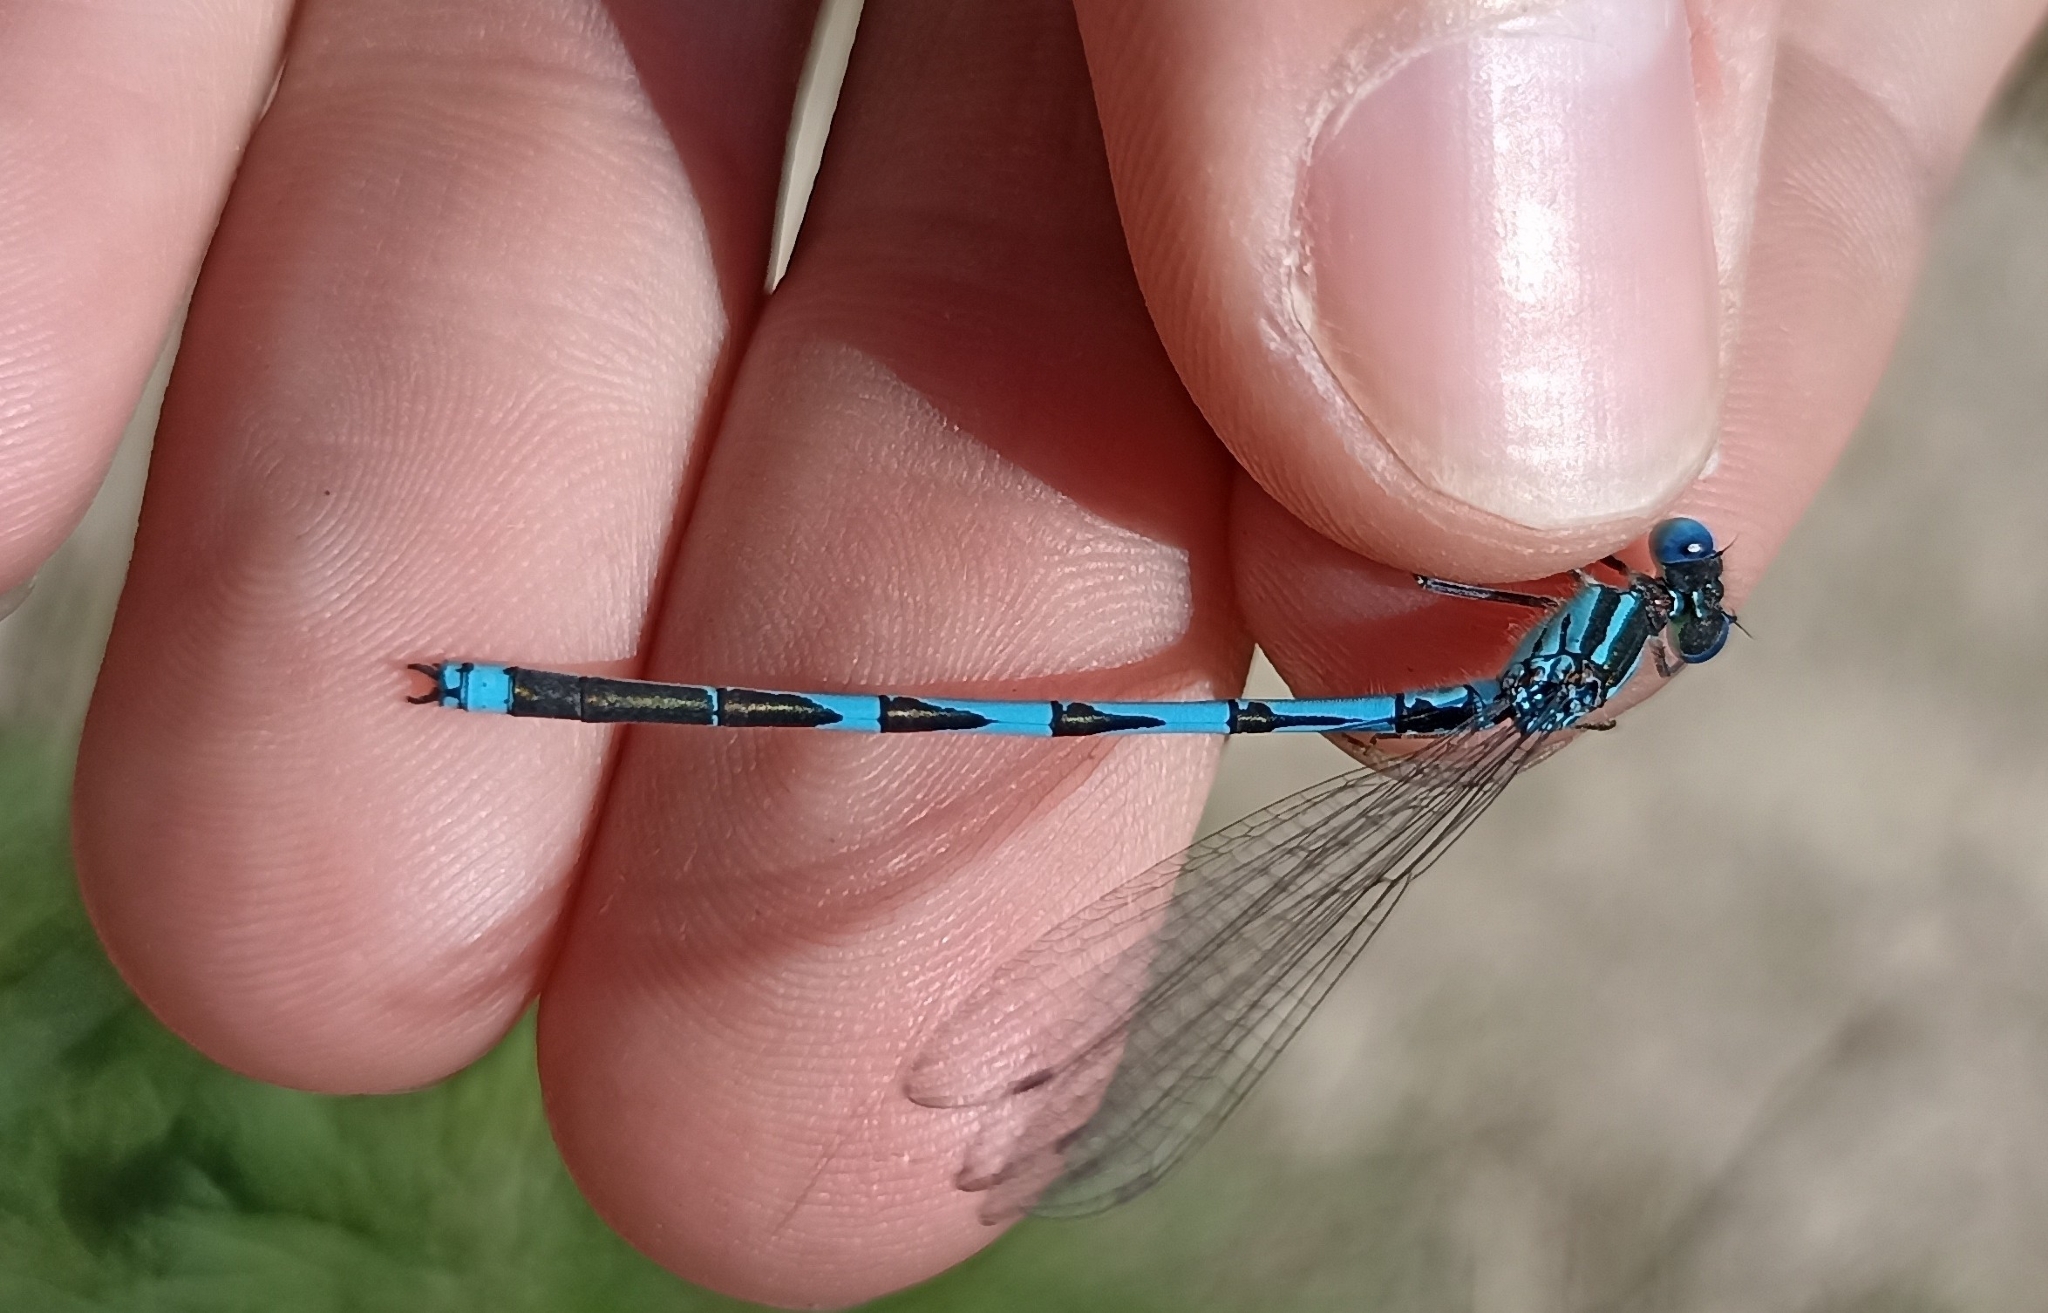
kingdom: Animalia
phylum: Arthropoda
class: Insecta
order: Odonata
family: Coenagrionidae
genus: Erythromma
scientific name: Erythromma lindenii
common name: Blue-eye
